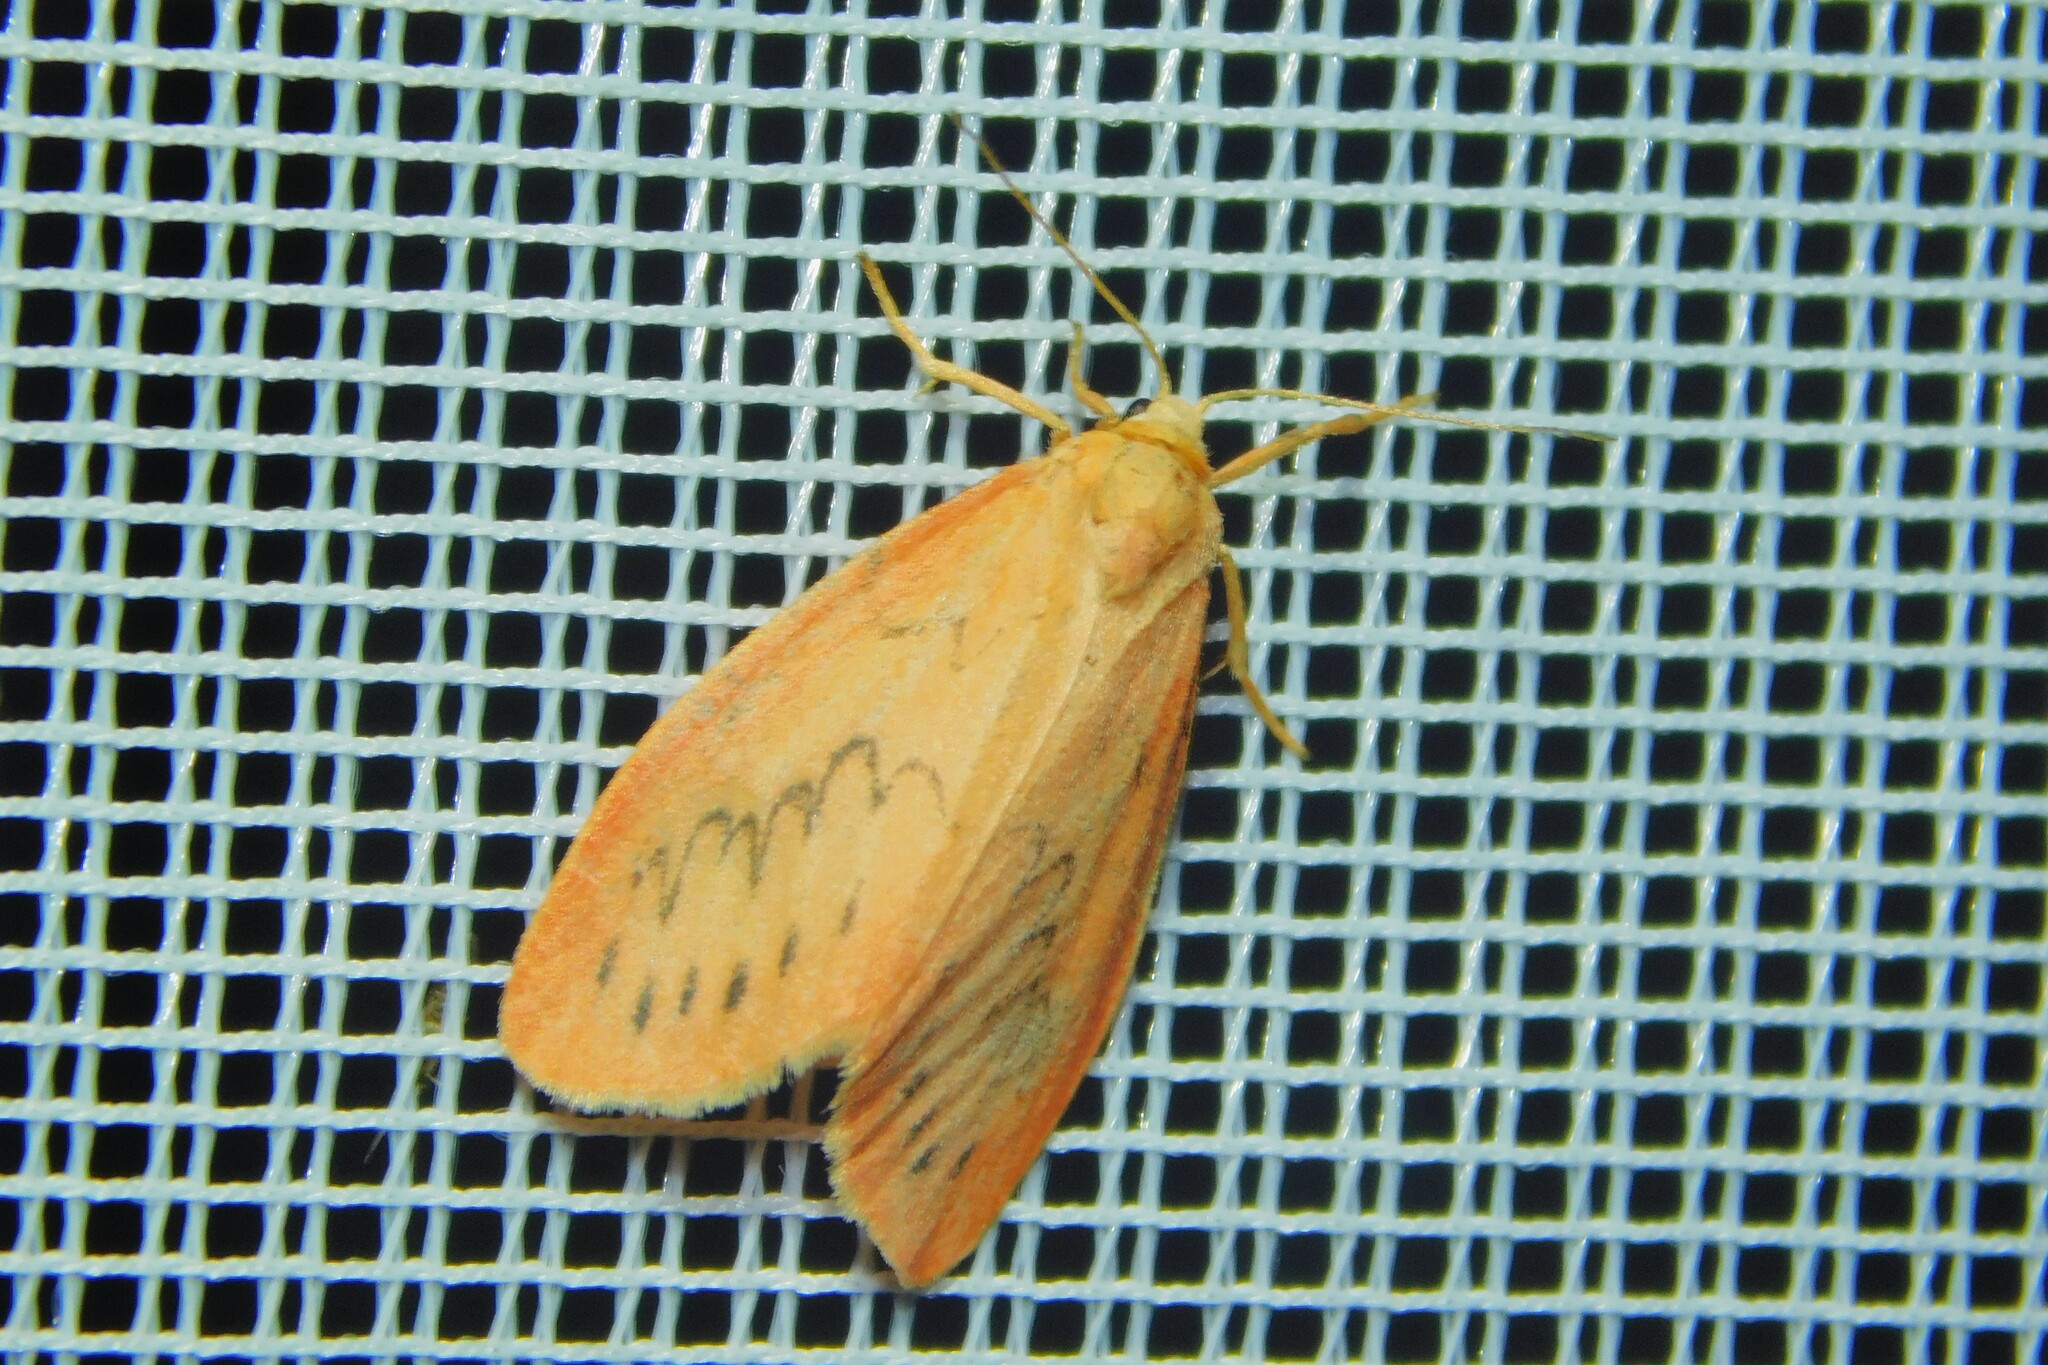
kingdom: Animalia
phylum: Arthropoda
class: Insecta
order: Lepidoptera
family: Erebidae
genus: Miltochrista
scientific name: Miltochrista miniata
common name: Rosy footman
